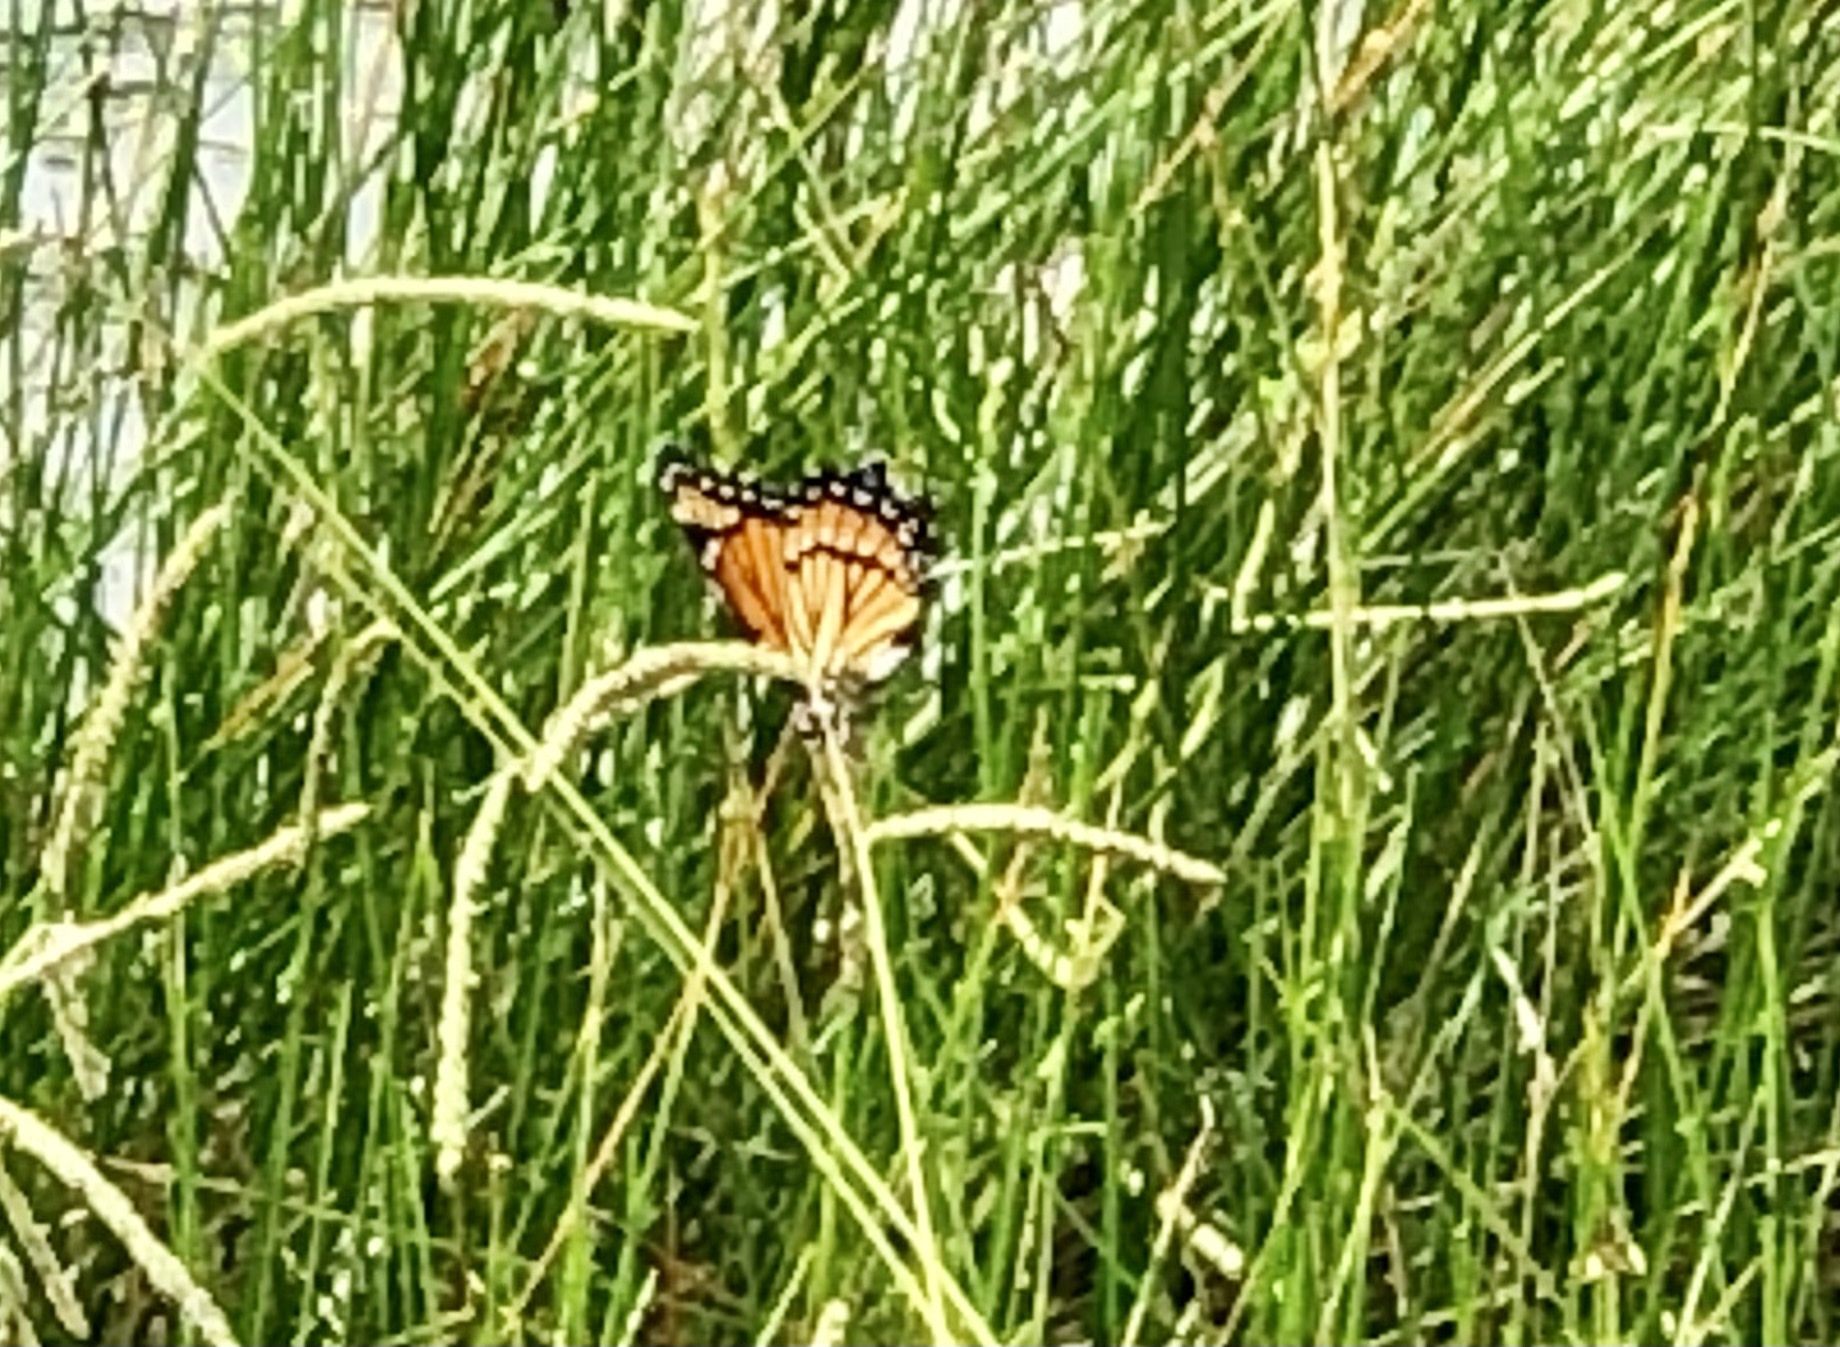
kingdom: Animalia
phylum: Arthropoda
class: Insecta
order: Lepidoptera
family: Nymphalidae
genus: Limenitis
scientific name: Limenitis archippus
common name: Viceroy
